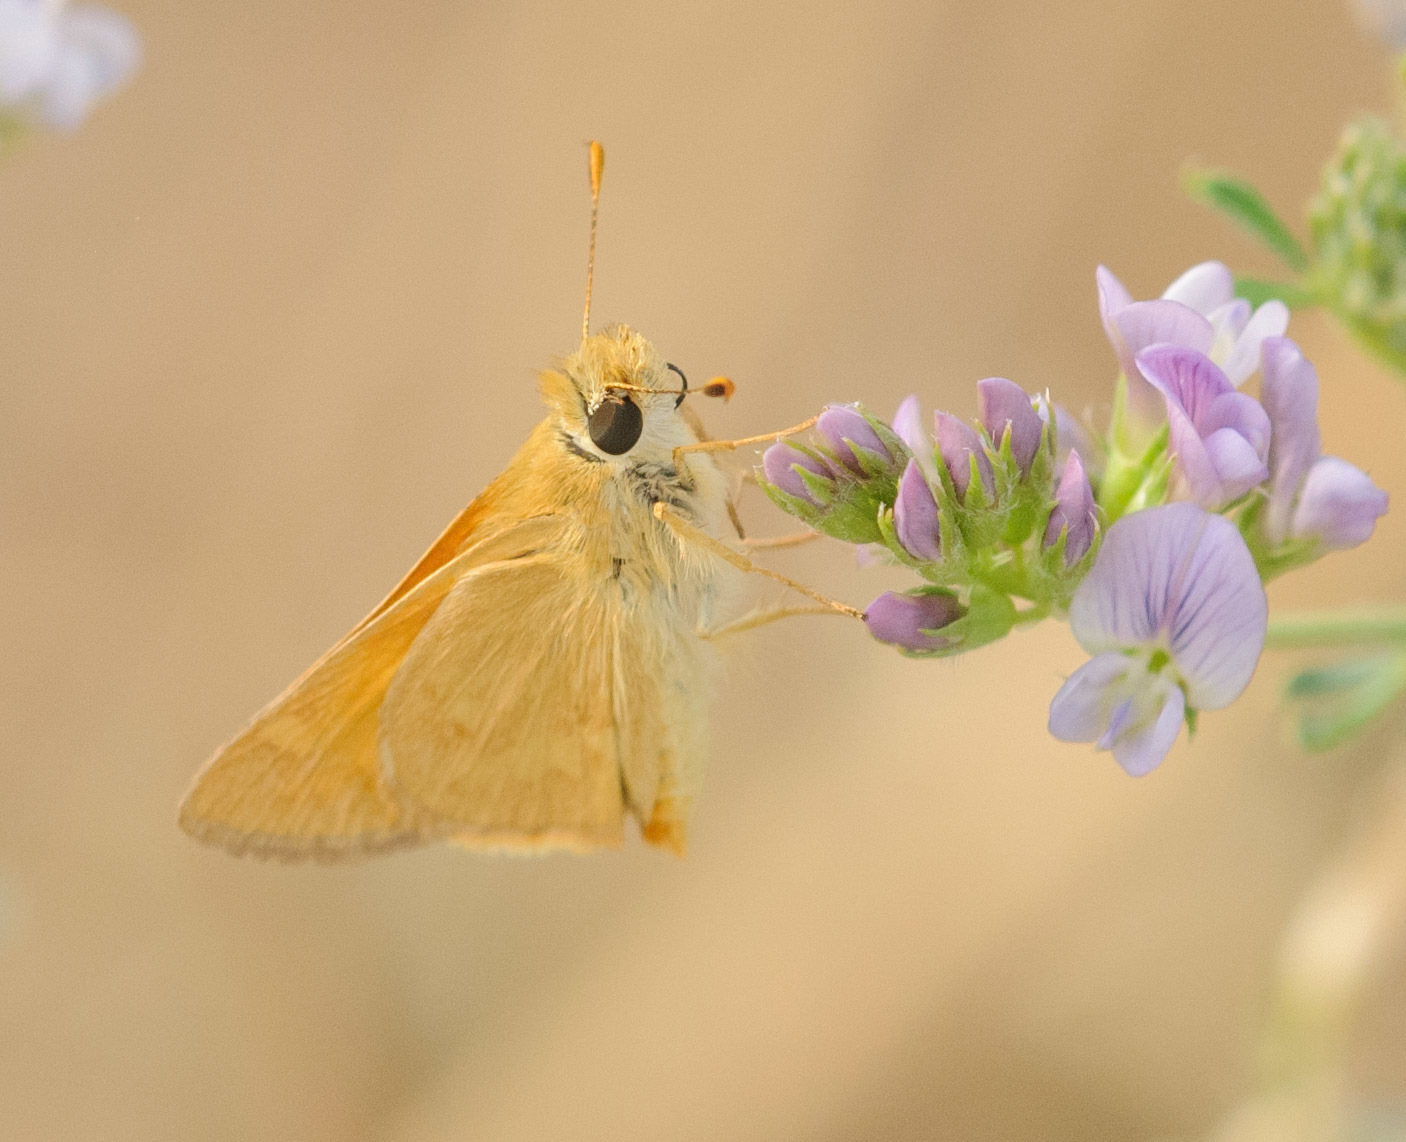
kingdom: Animalia
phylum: Arthropoda
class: Insecta
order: Lepidoptera
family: Hesperiidae
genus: Ochlodes
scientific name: Ochlodes sylvanoides
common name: Woodland skipper
